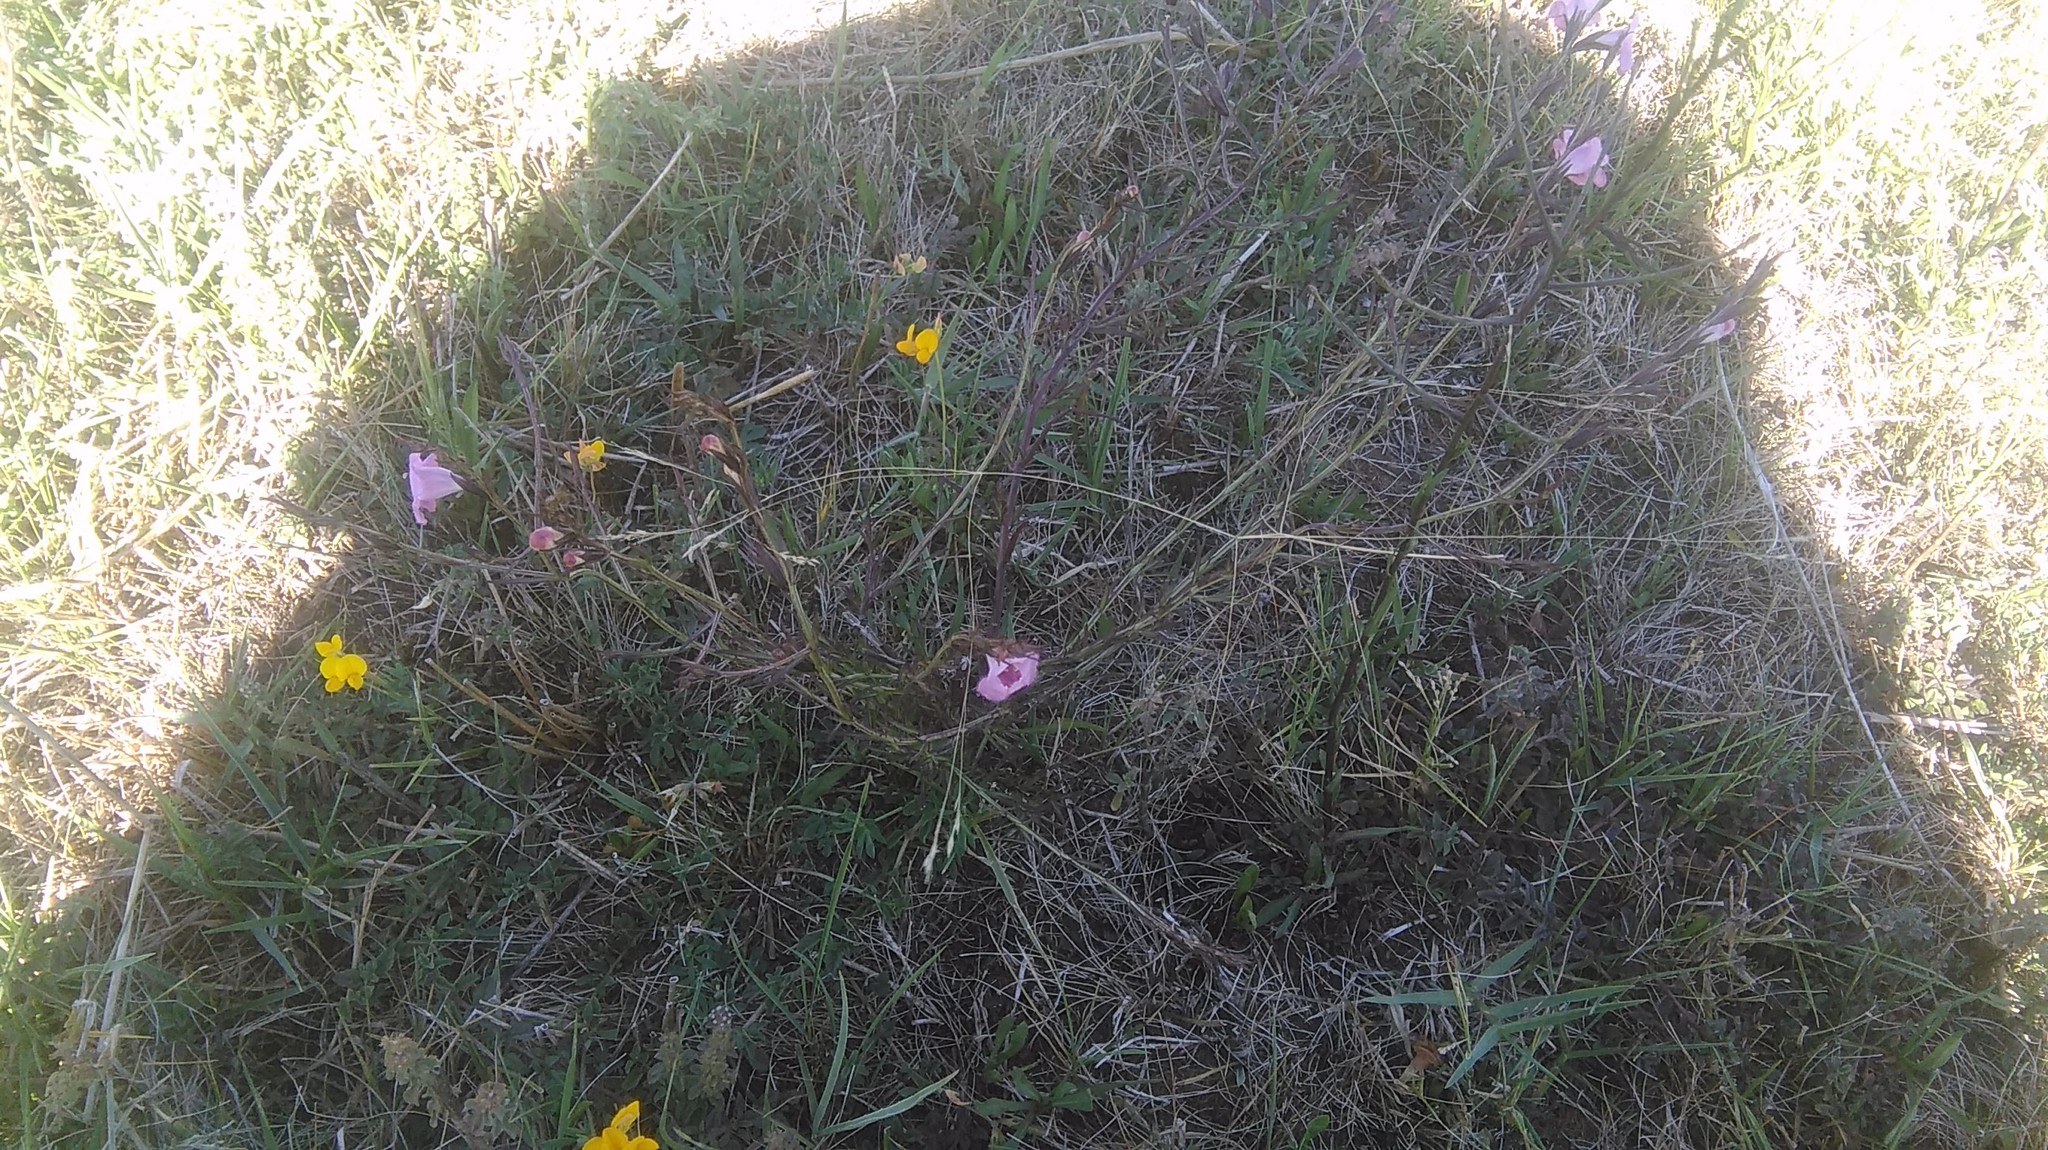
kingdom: Plantae
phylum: Tracheophyta
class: Magnoliopsida
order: Lamiales
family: Orobanchaceae
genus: Agalinis
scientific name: Agalinis communis
